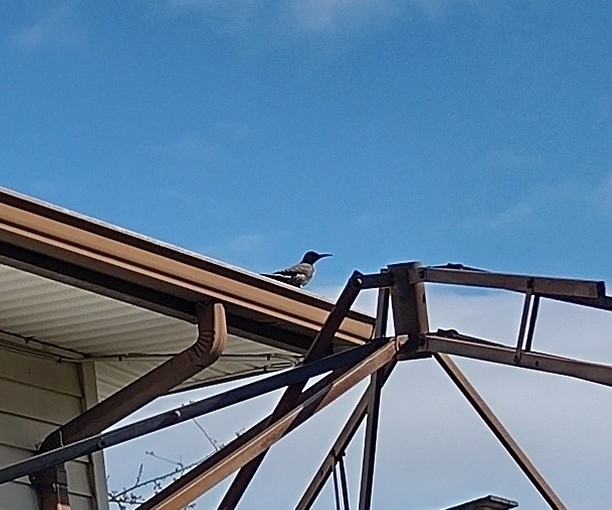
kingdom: Animalia
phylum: Chordata
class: Aves
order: Piciformes
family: Picidae
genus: Colaptes
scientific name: Colaptes auratus
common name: Northern flicker
